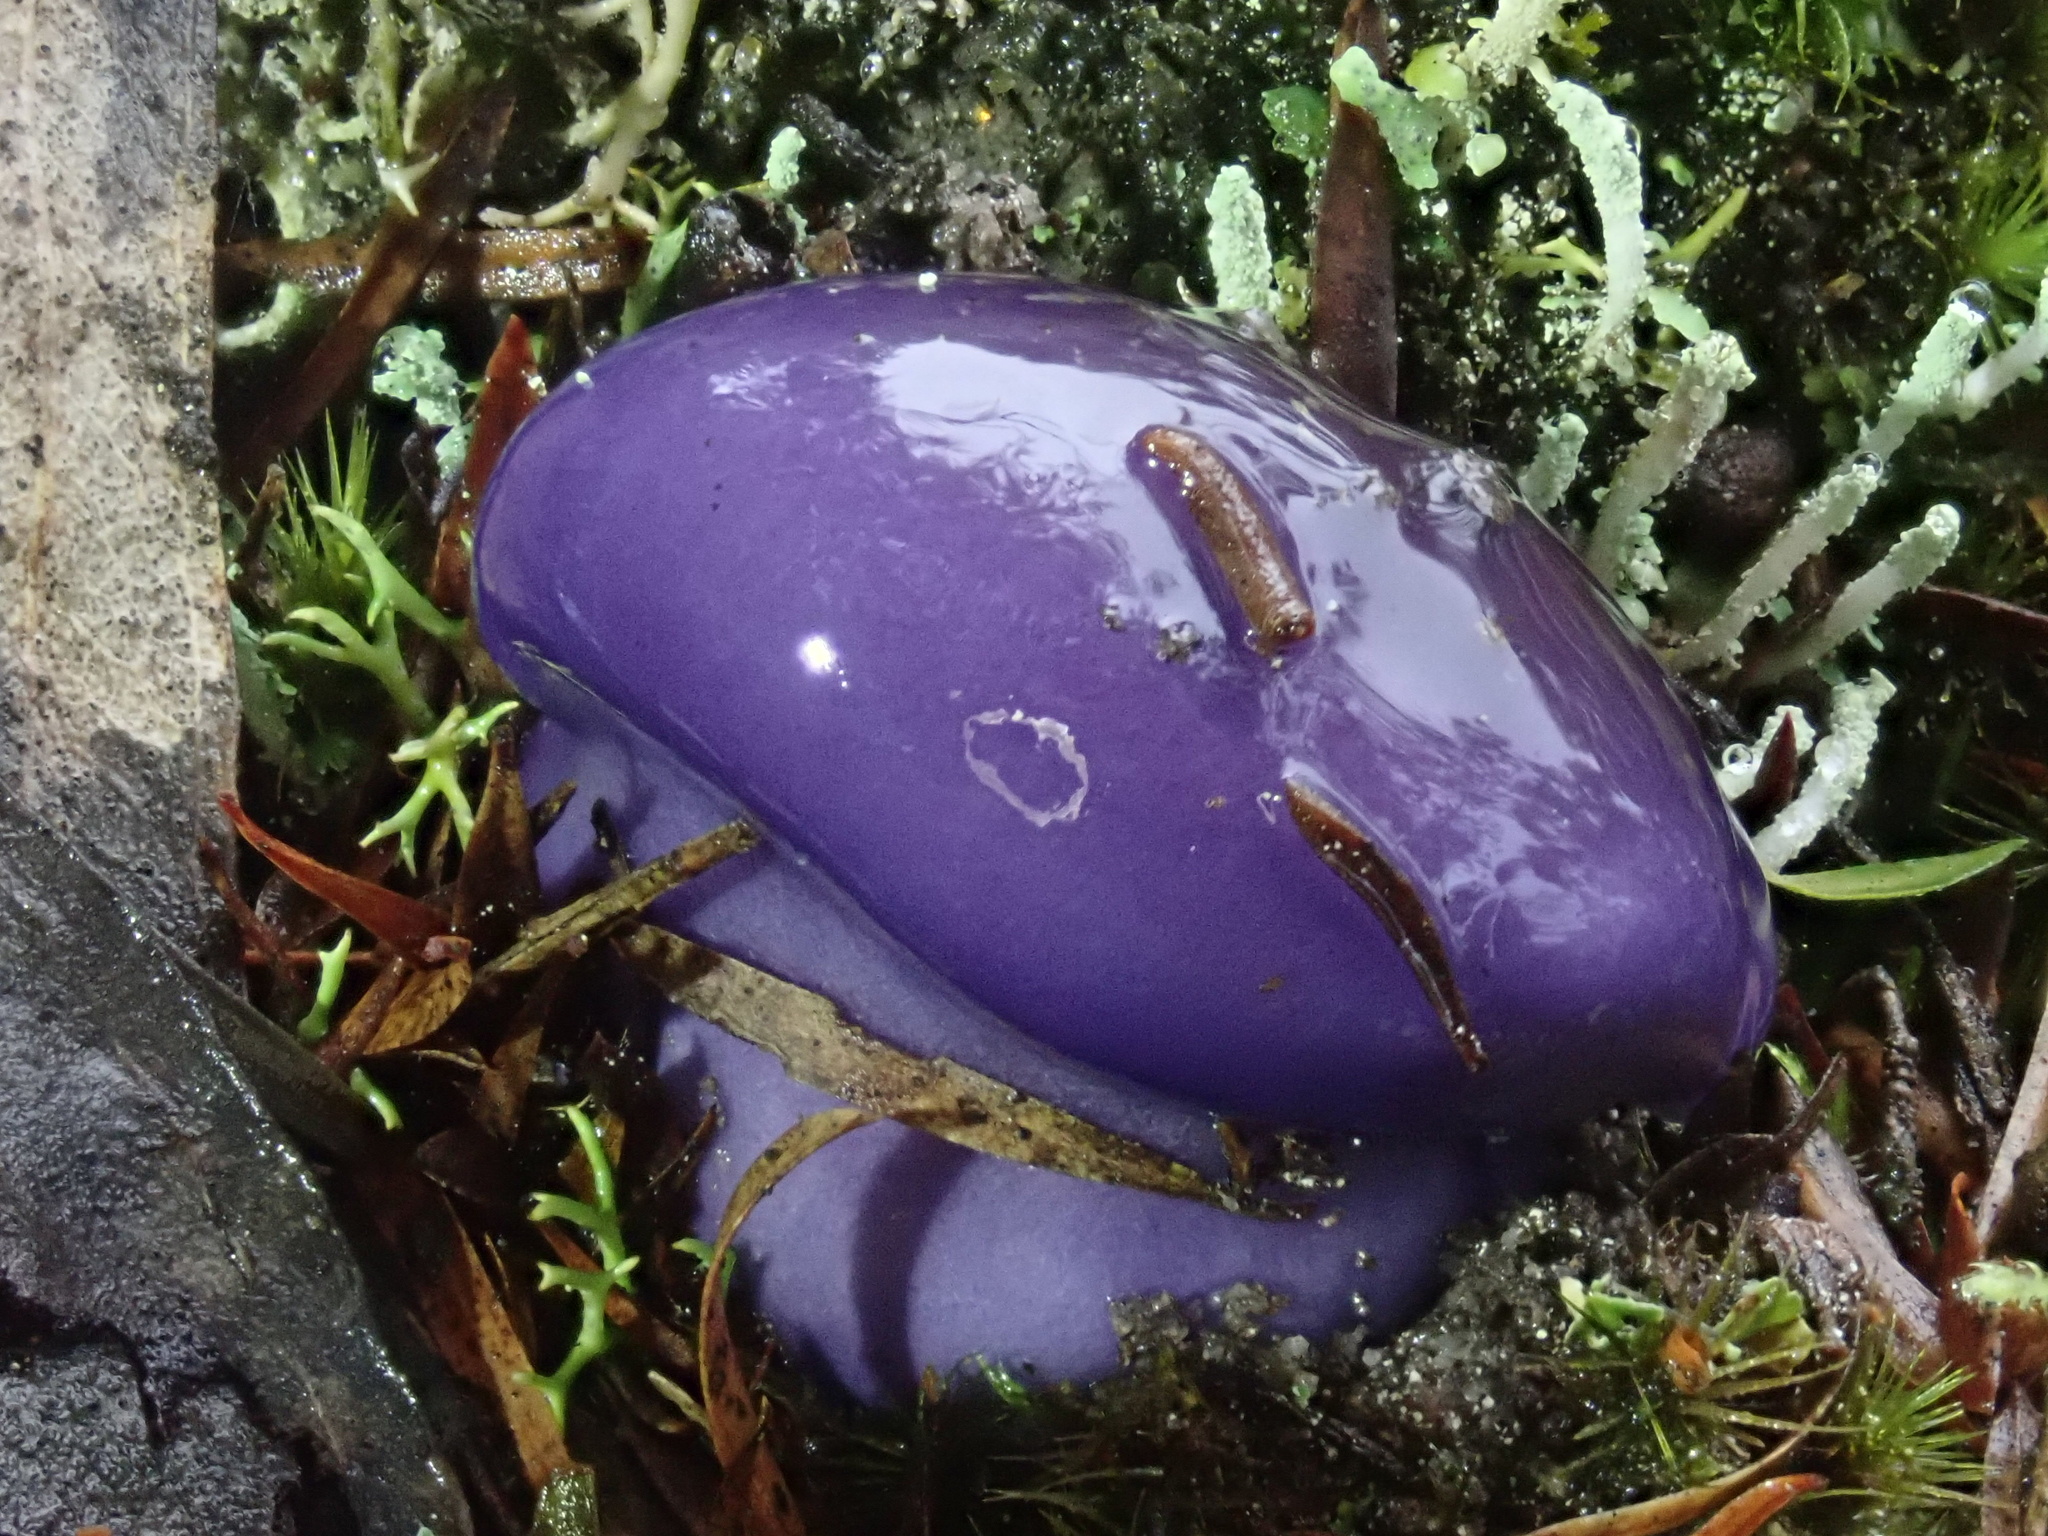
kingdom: Fungi
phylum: Basidiomycota
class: Agaricomycetes
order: Agaricales
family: Cortinariaceae
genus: Cortinarius
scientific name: Cortinarius archeri
